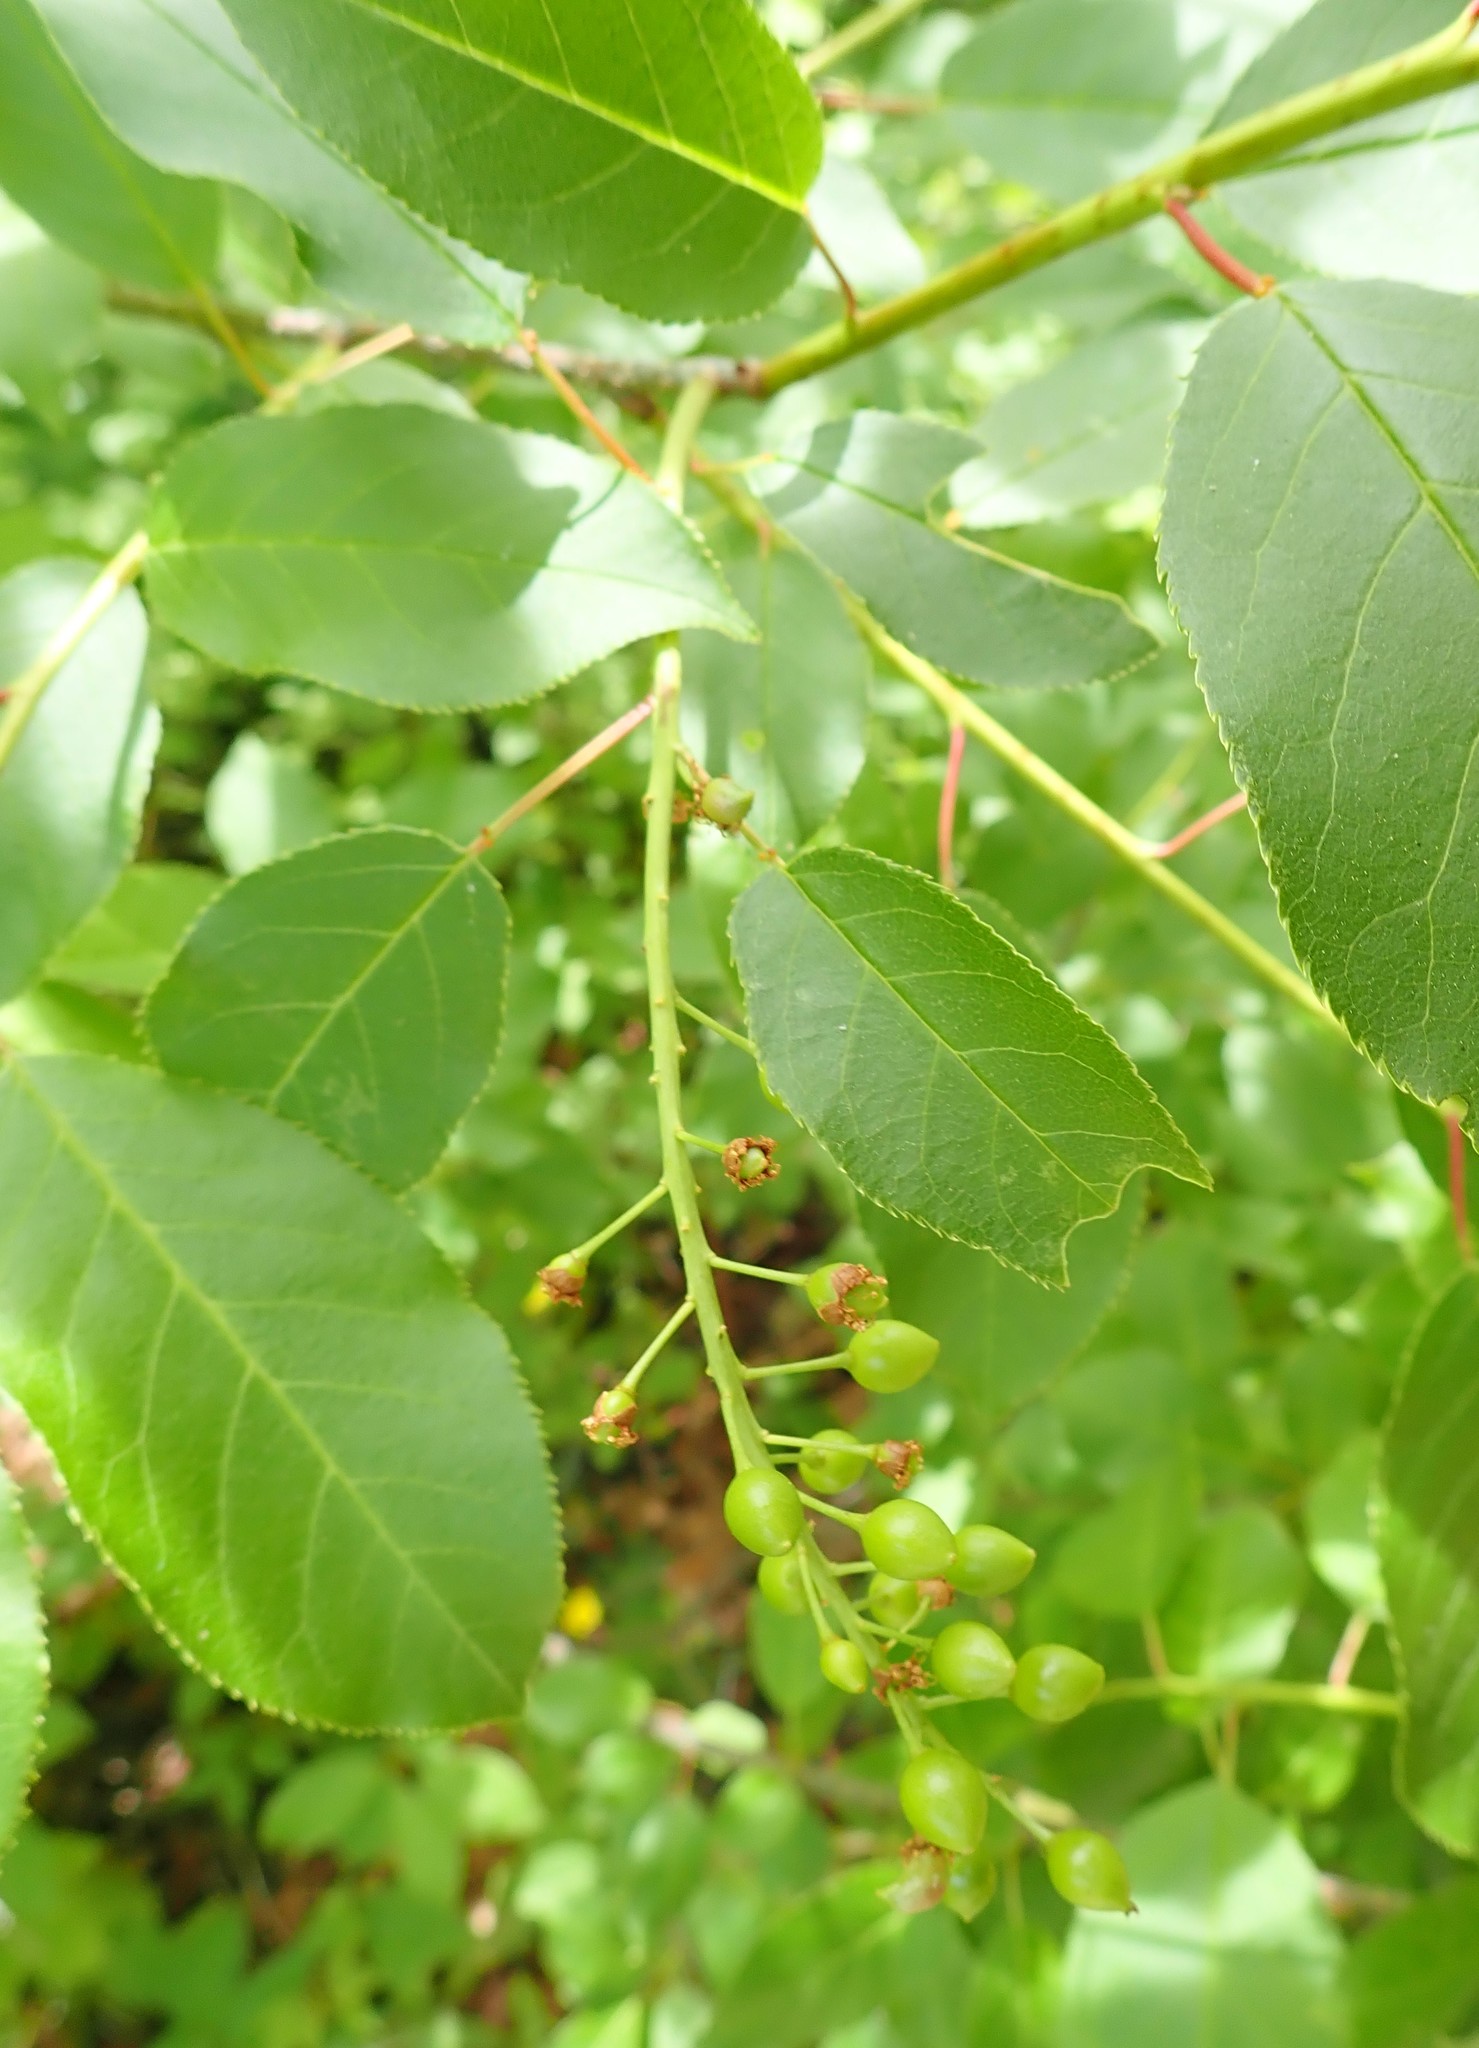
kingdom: Plantae
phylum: Tracheophyta
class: Magnoliopsida
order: Rosales
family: Rosaceae
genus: Prunus
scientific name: Prunus virginiana
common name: Chokecherry
